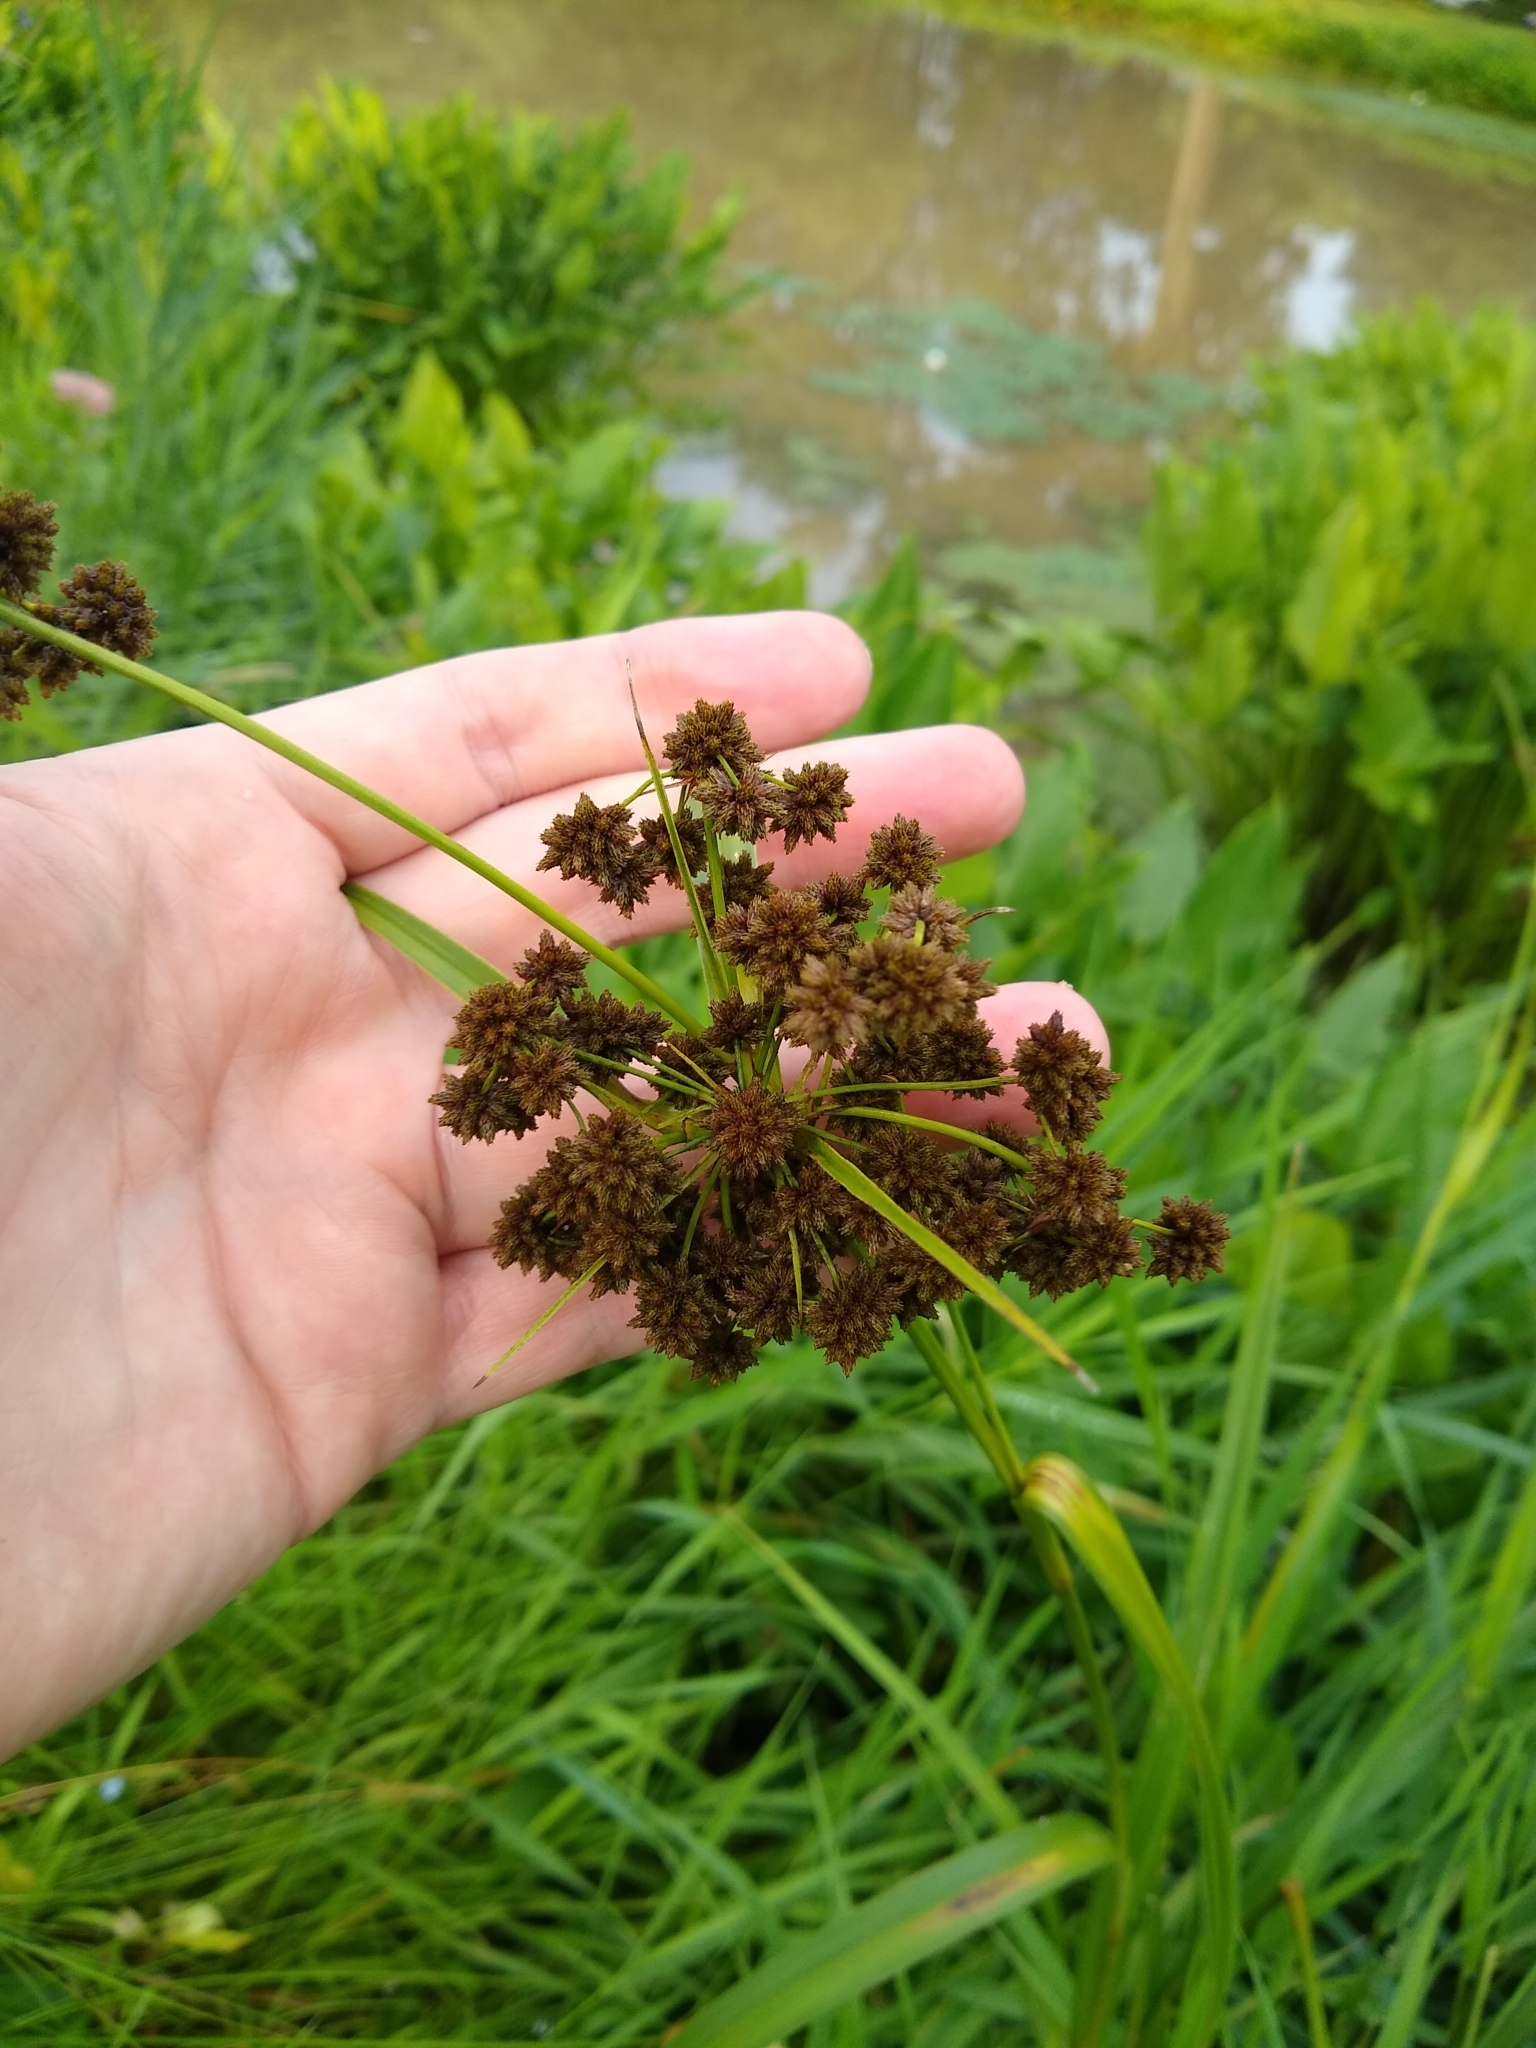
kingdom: Plantae
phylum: Tracheophyta
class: Liliopsida
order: Poales
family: Cyperaceae
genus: Scirpus
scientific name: Scirpus atrovirens
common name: Black bulrush
